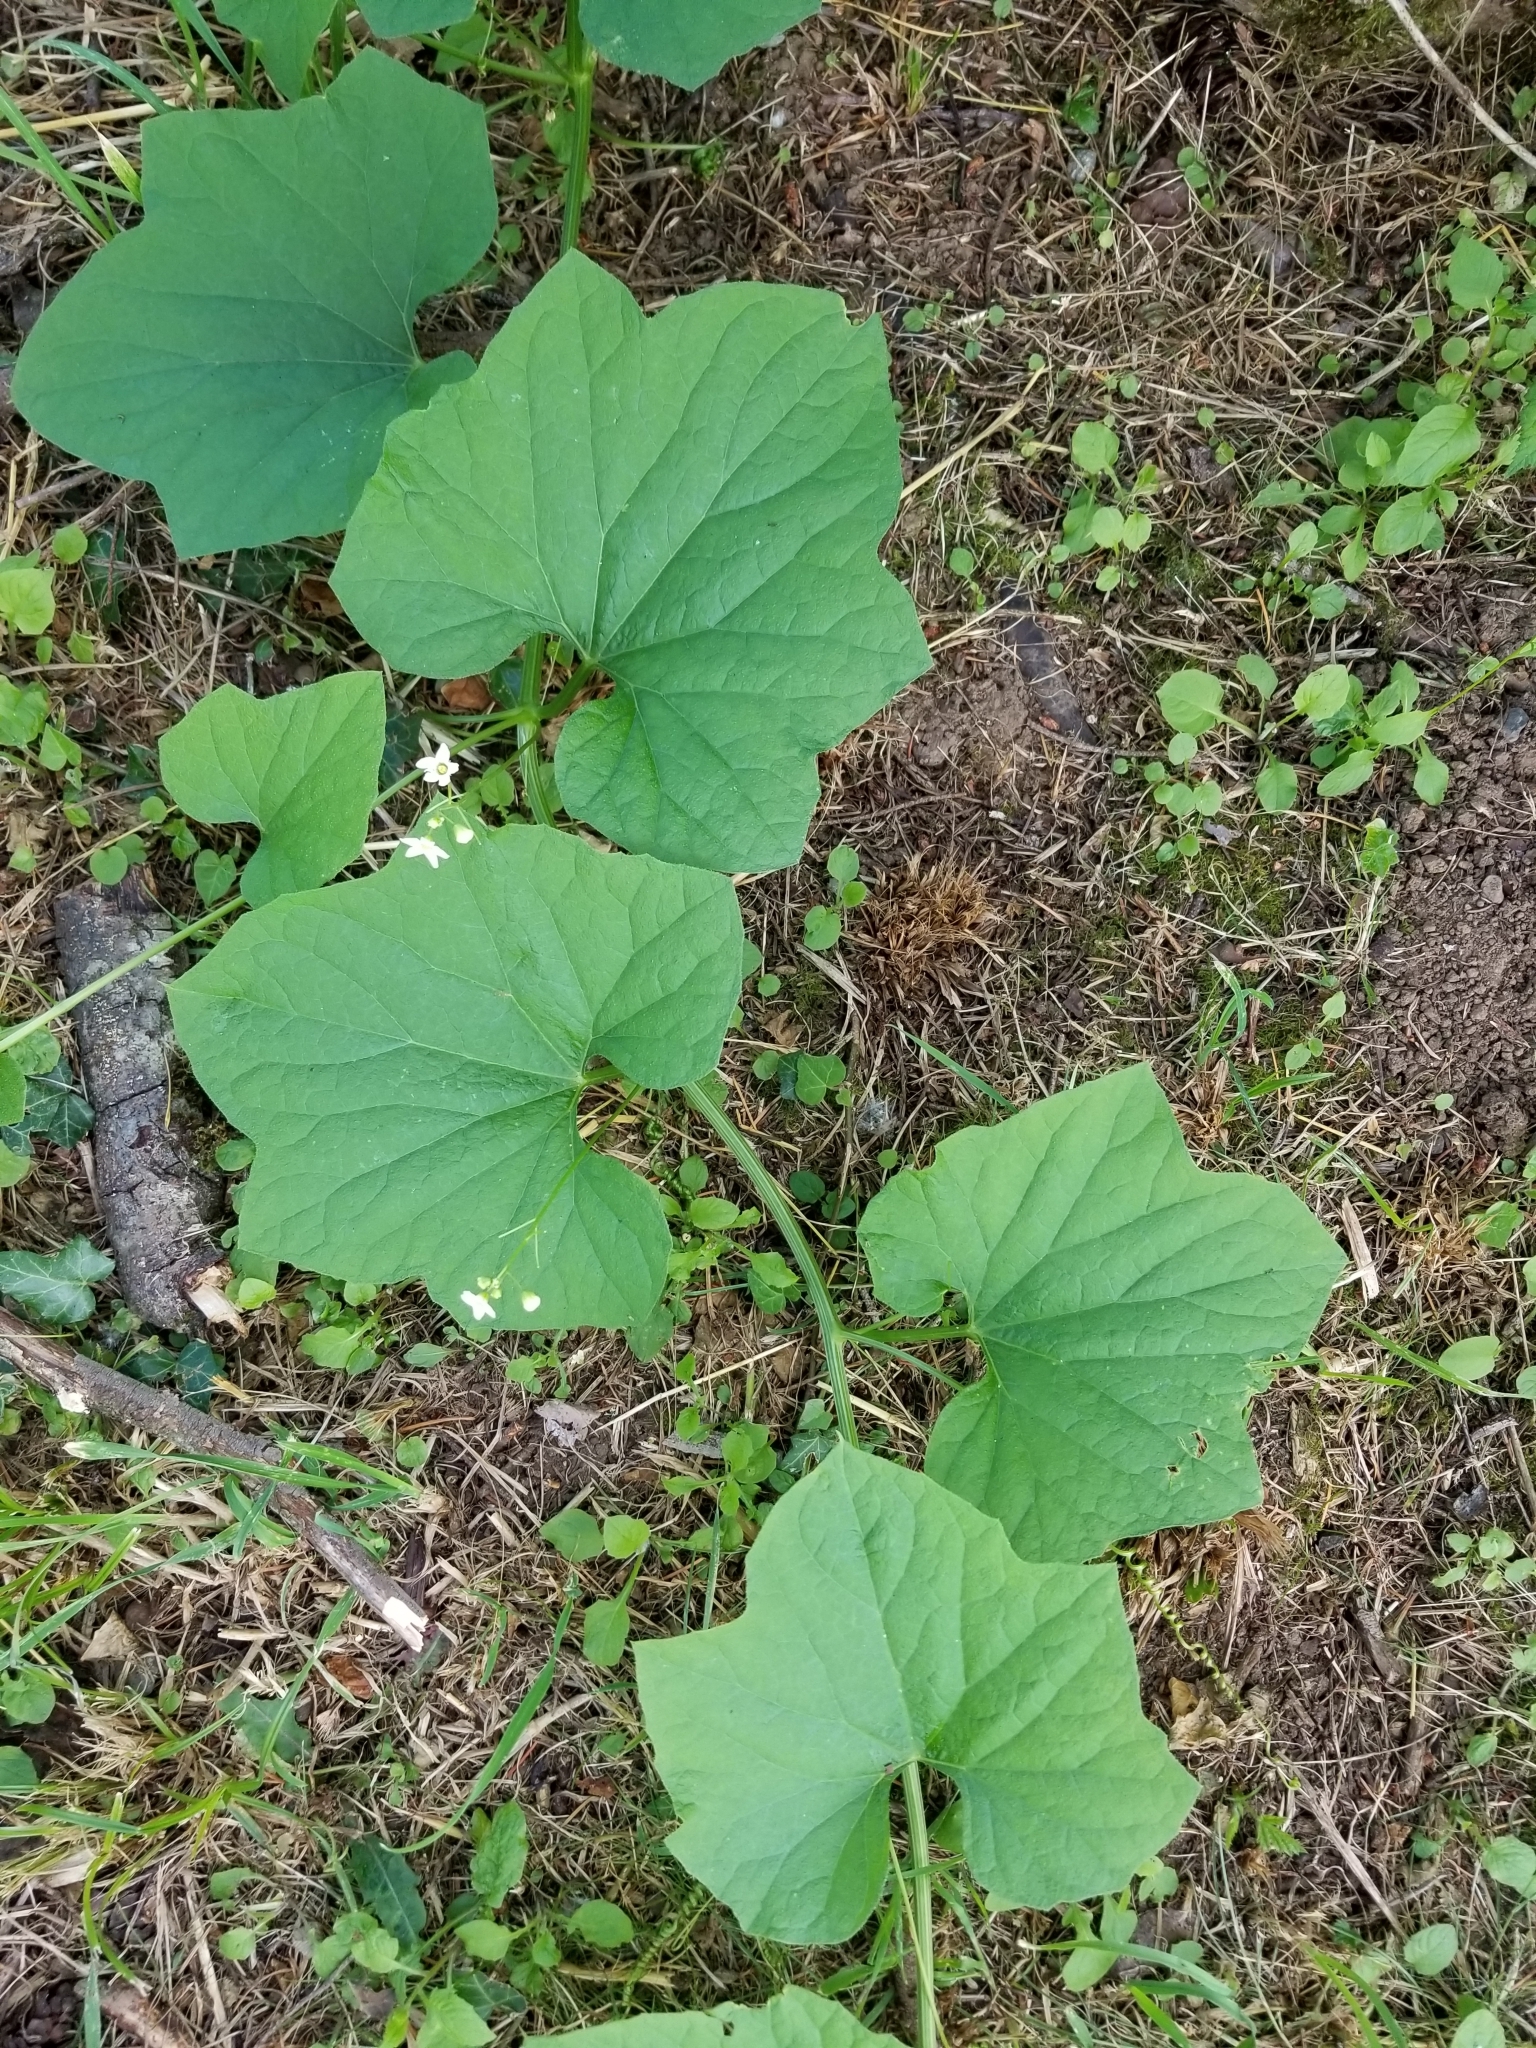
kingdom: Plantae
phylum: Tracheophyta
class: Magnoliopsida
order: Cucurbitales
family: Cucurbitaceae
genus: Marah
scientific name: Marah oregana
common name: Coastal manroot
